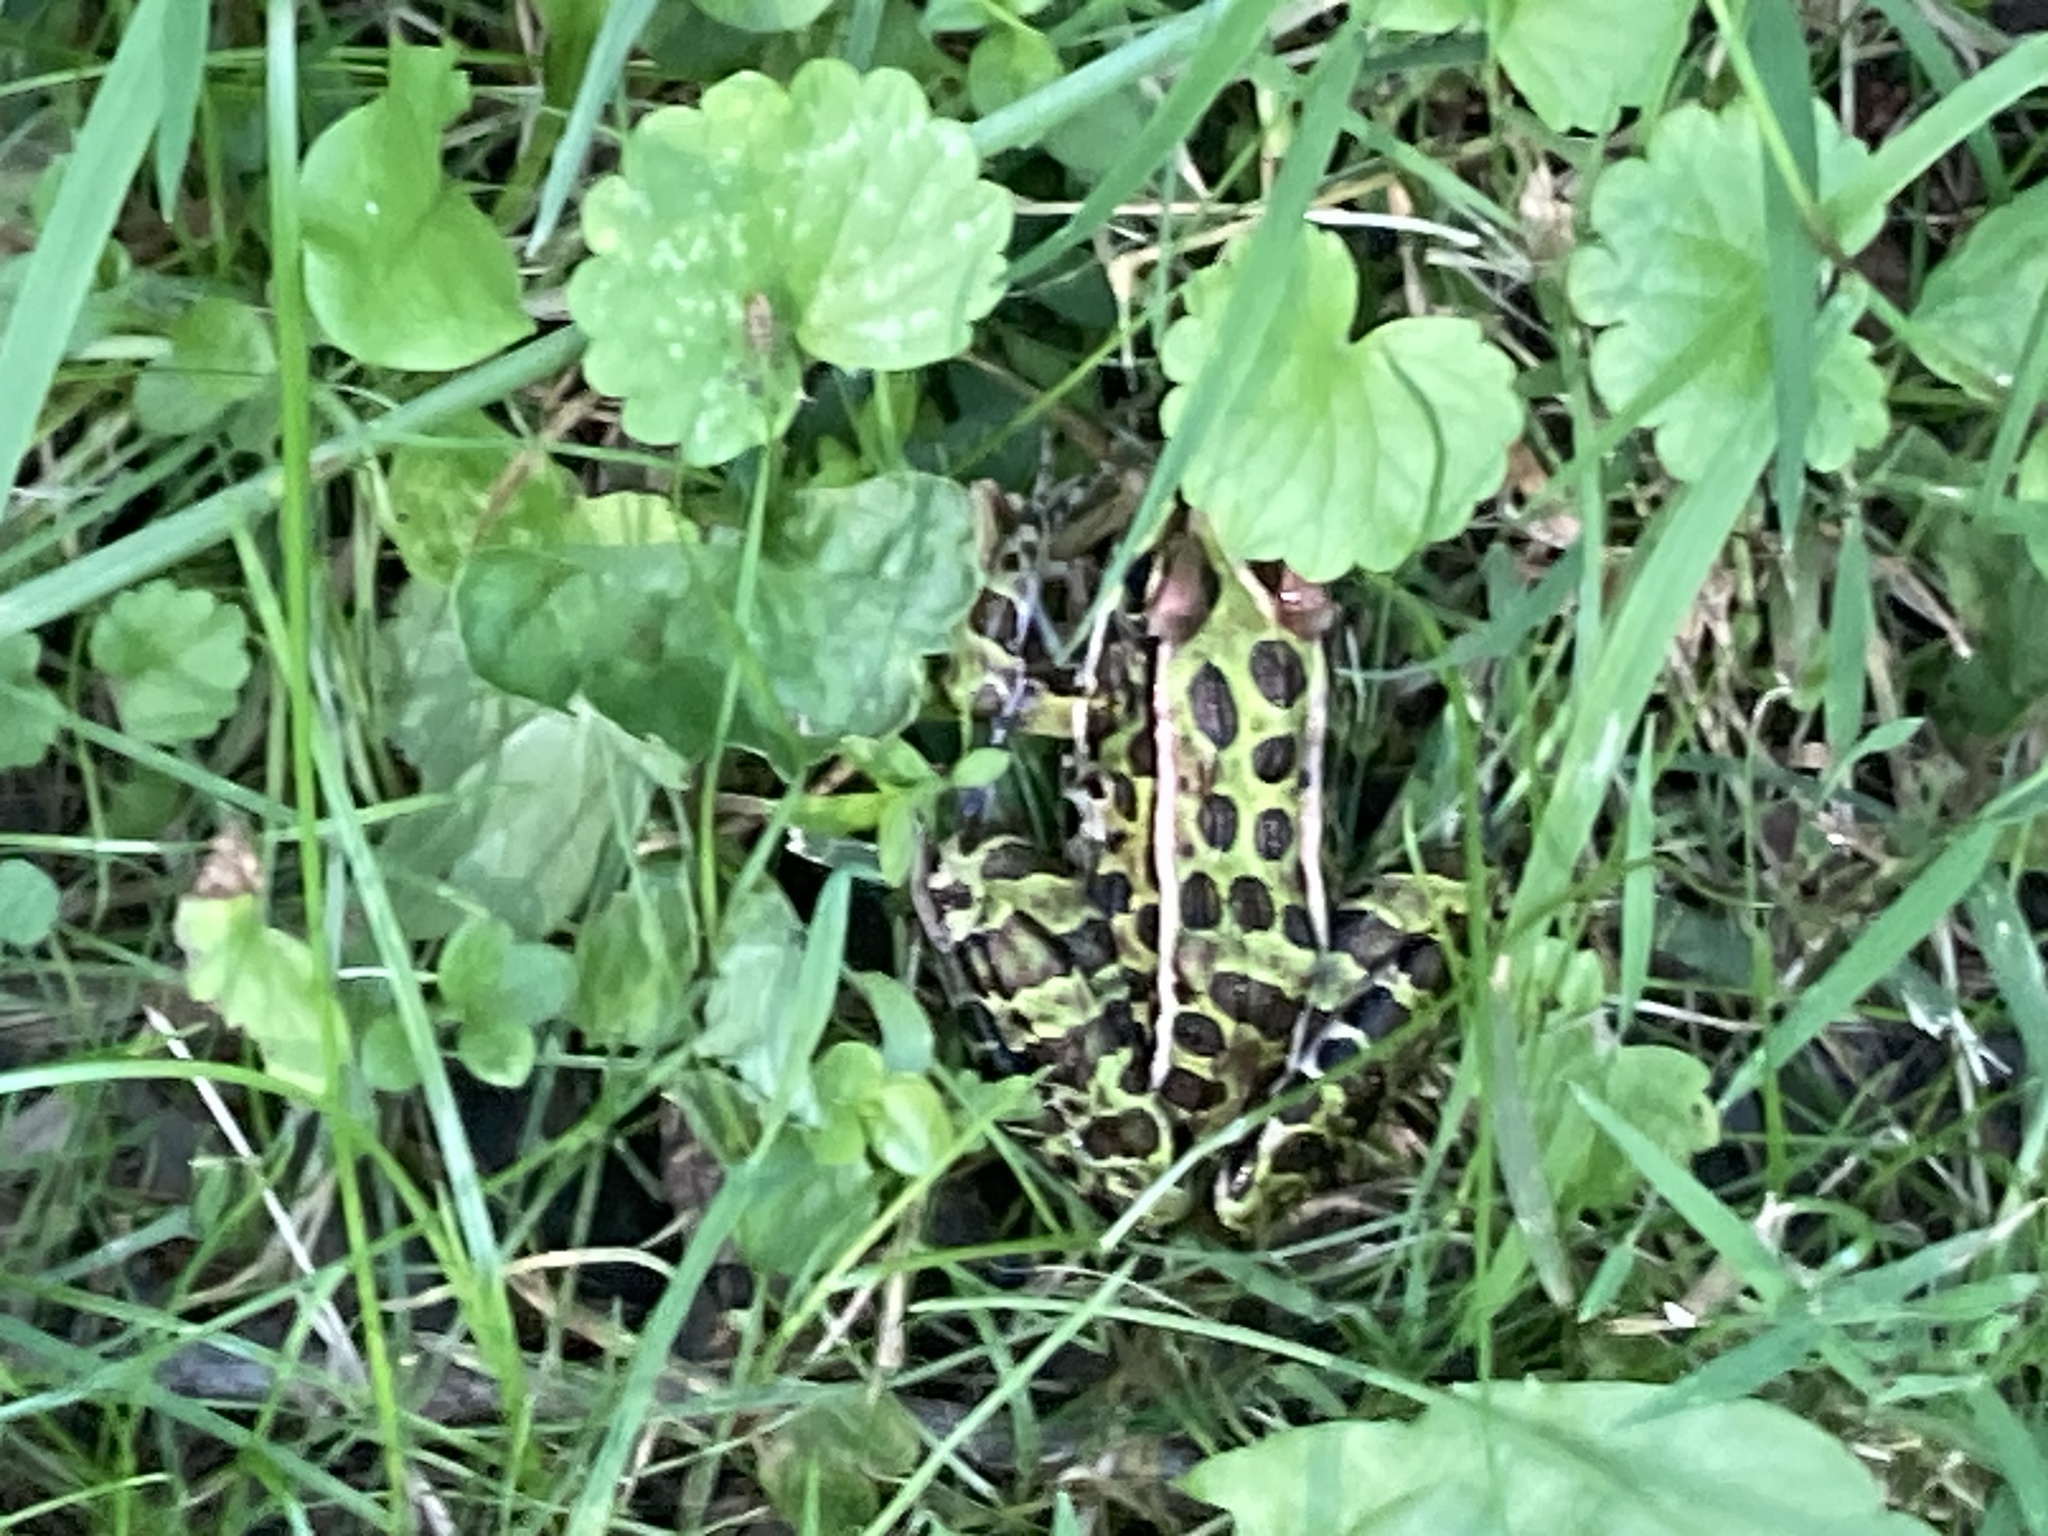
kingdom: Animalia
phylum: Chordata
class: Amphibia
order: Anura
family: Ranidae
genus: Lithobates
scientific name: Lithobates pipiens
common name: Northern leopard frog
